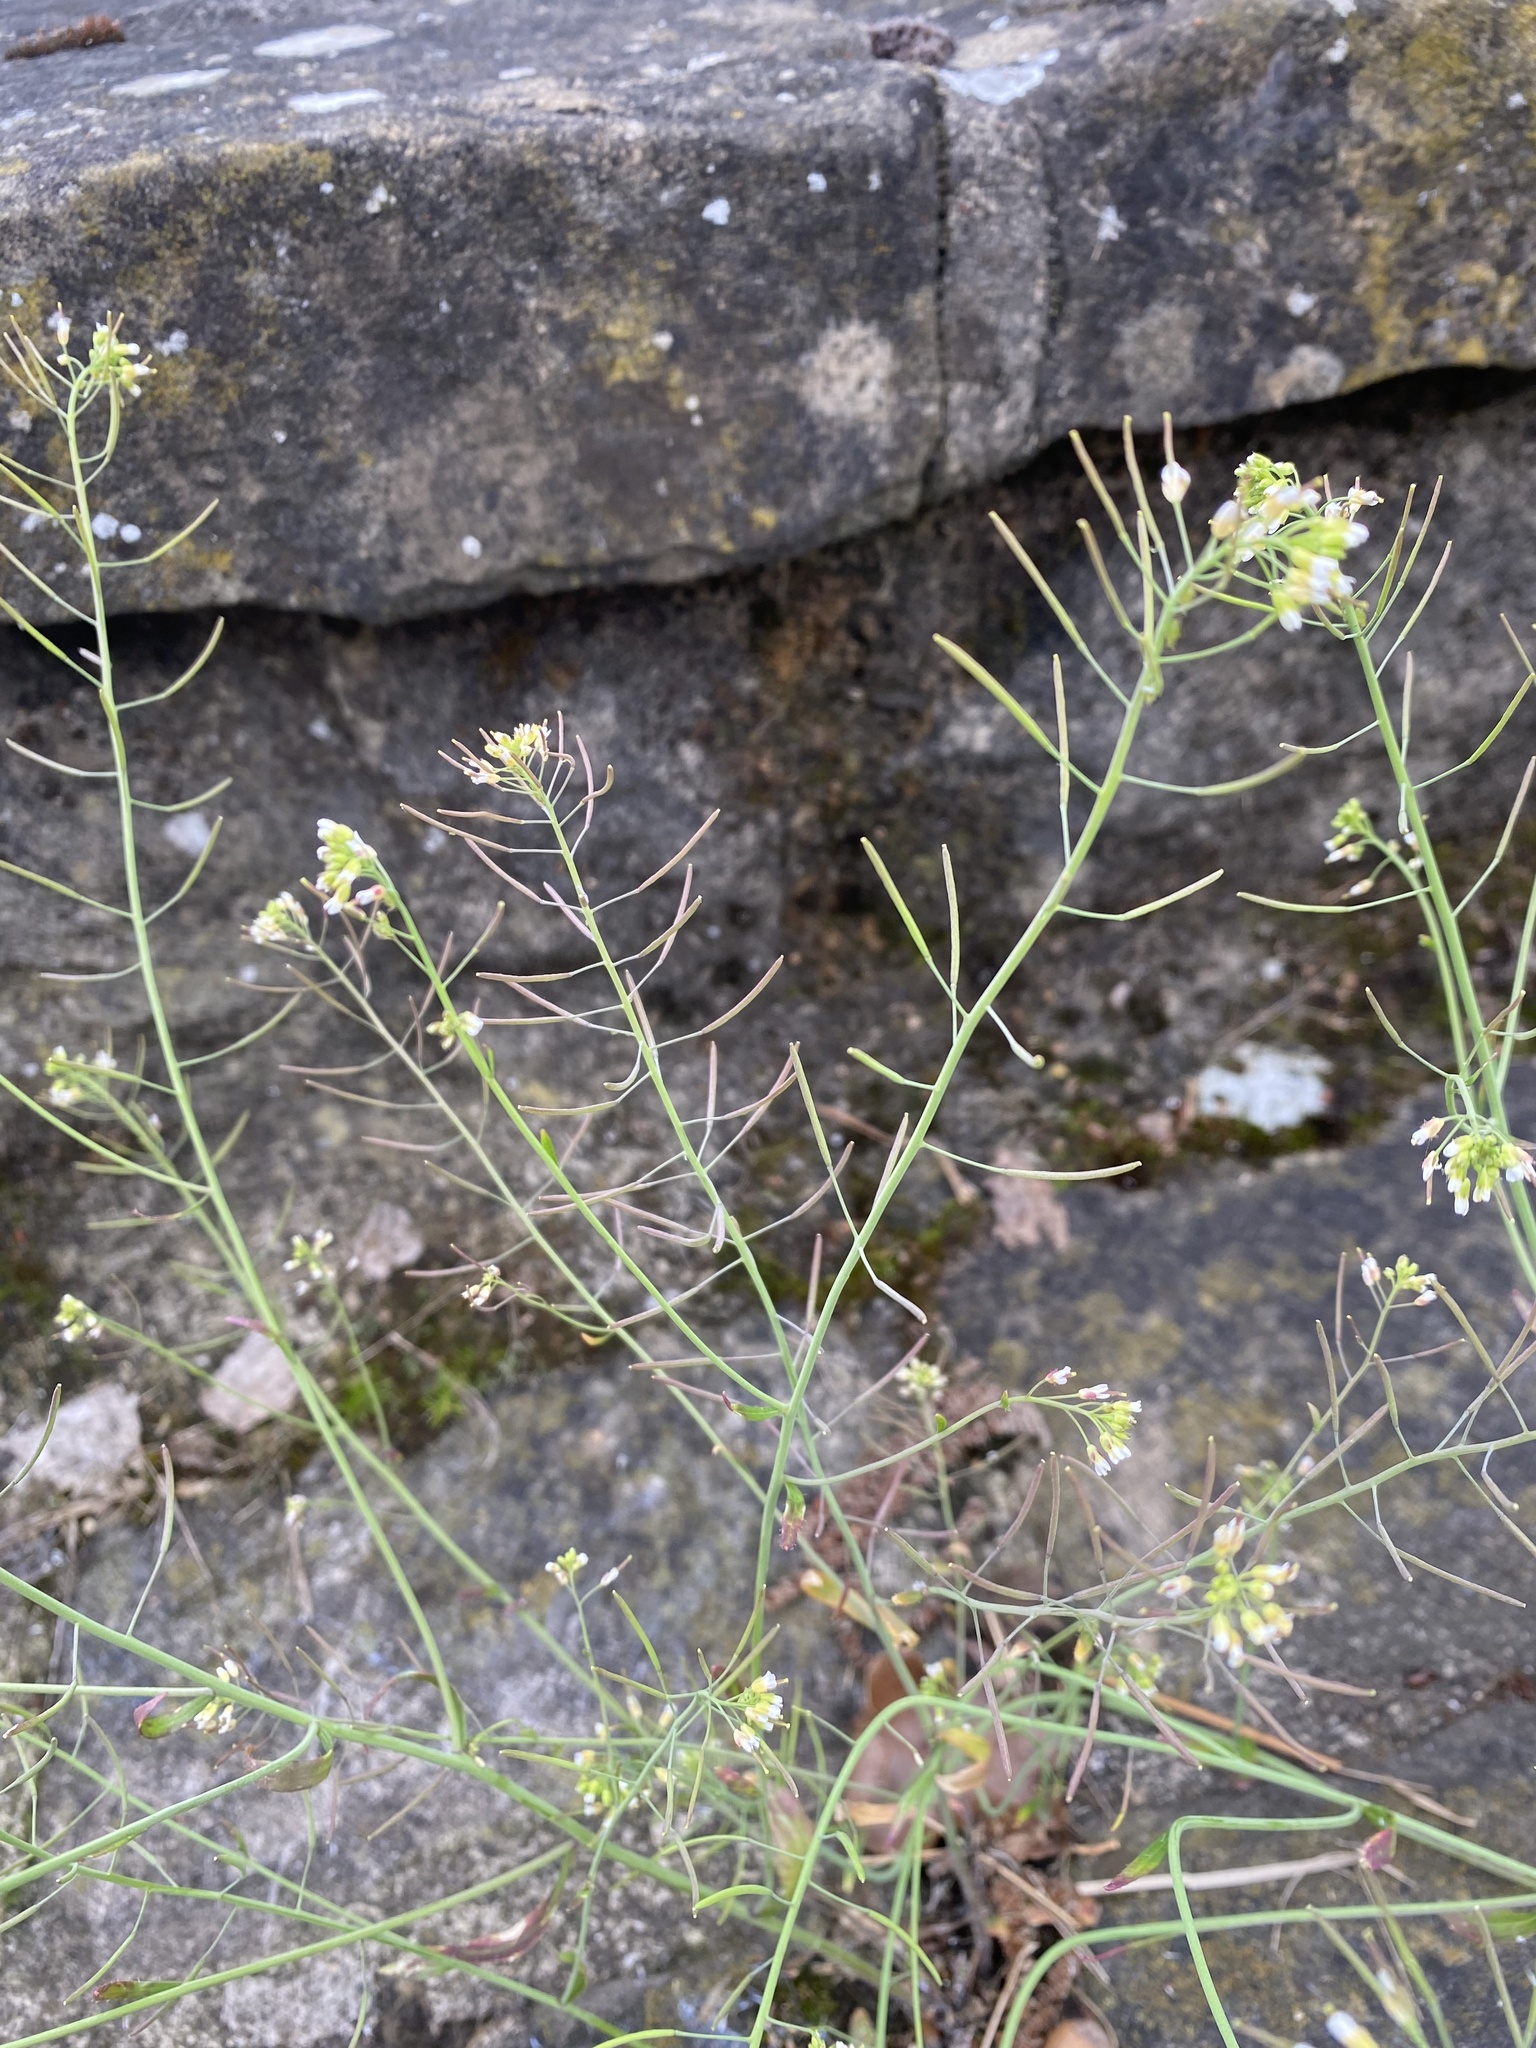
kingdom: Plantae
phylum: Tracheophyta
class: Magnoliopsida
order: Brassicales
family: Brassicaceae
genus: Arabidopsis
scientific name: Arabidopsis thaliana
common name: Thale cress
